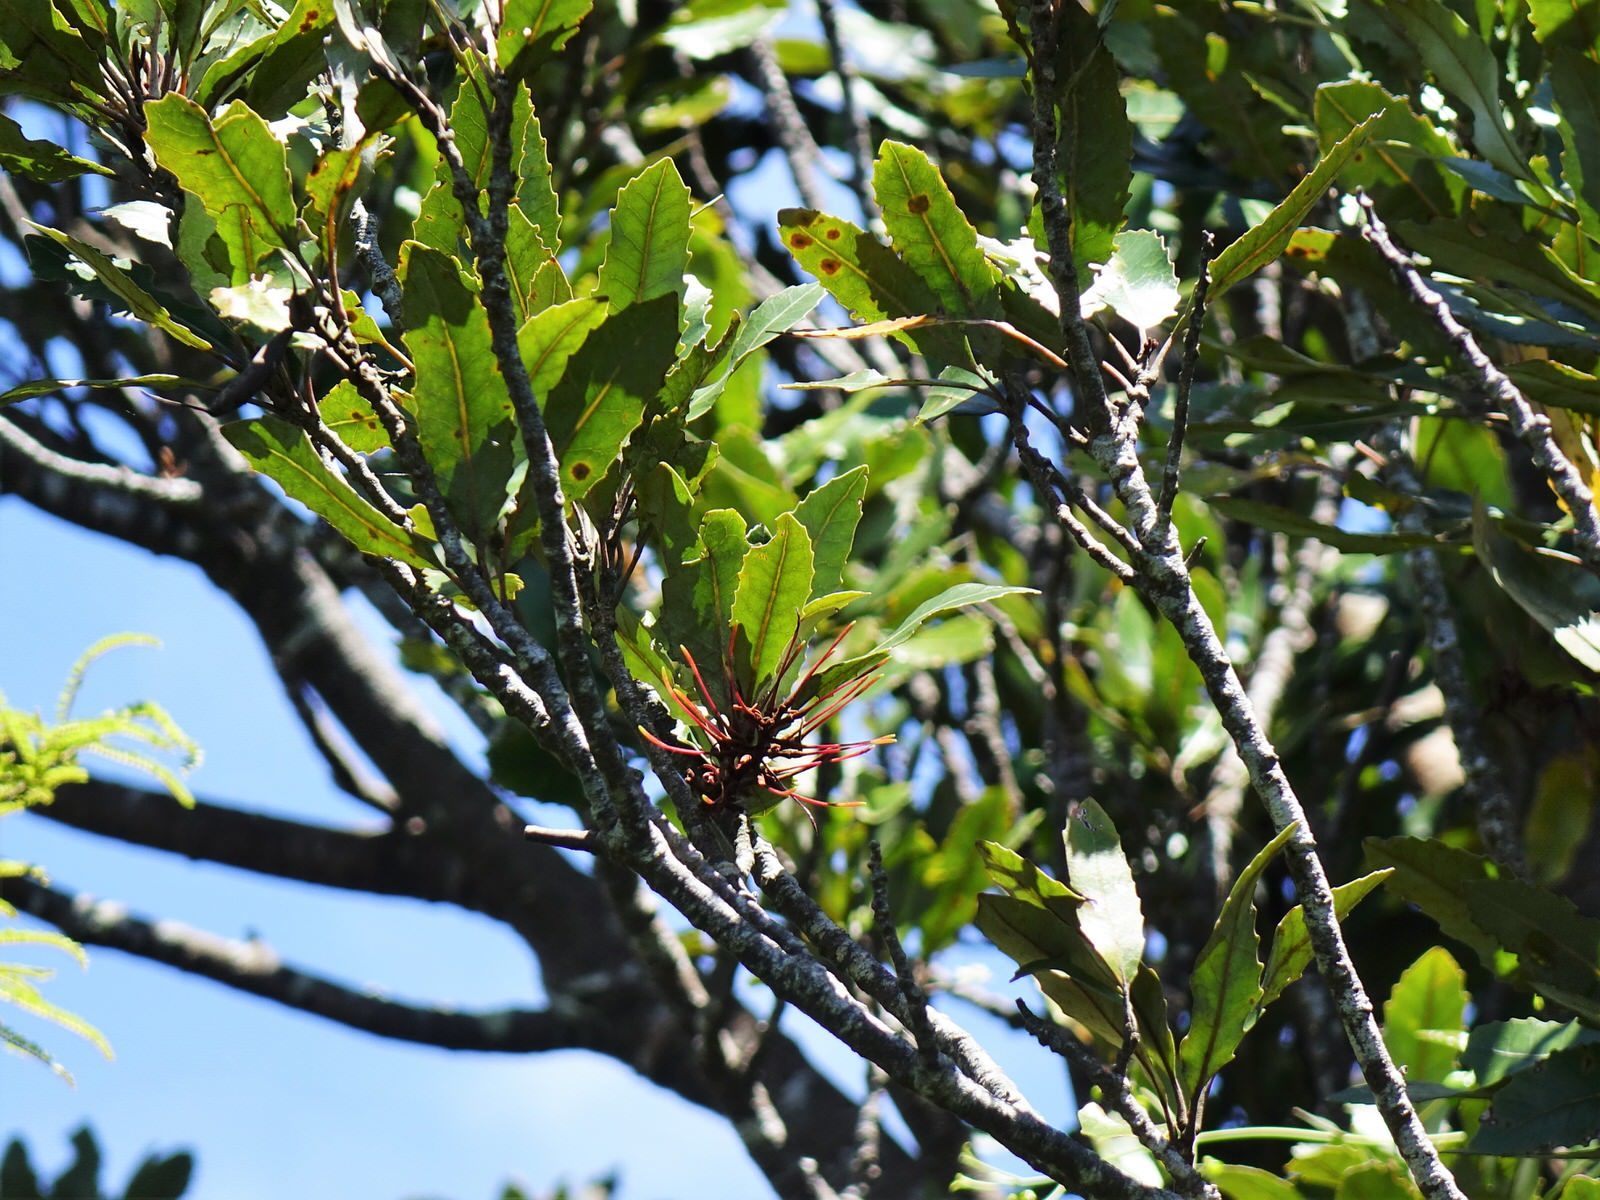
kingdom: Plantae
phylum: Tracheophyta
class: Magnoliopsida
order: Proteales
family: Proteaceae
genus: Knightia
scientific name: Knightia excelsa
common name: New zealand-honeysuckle
